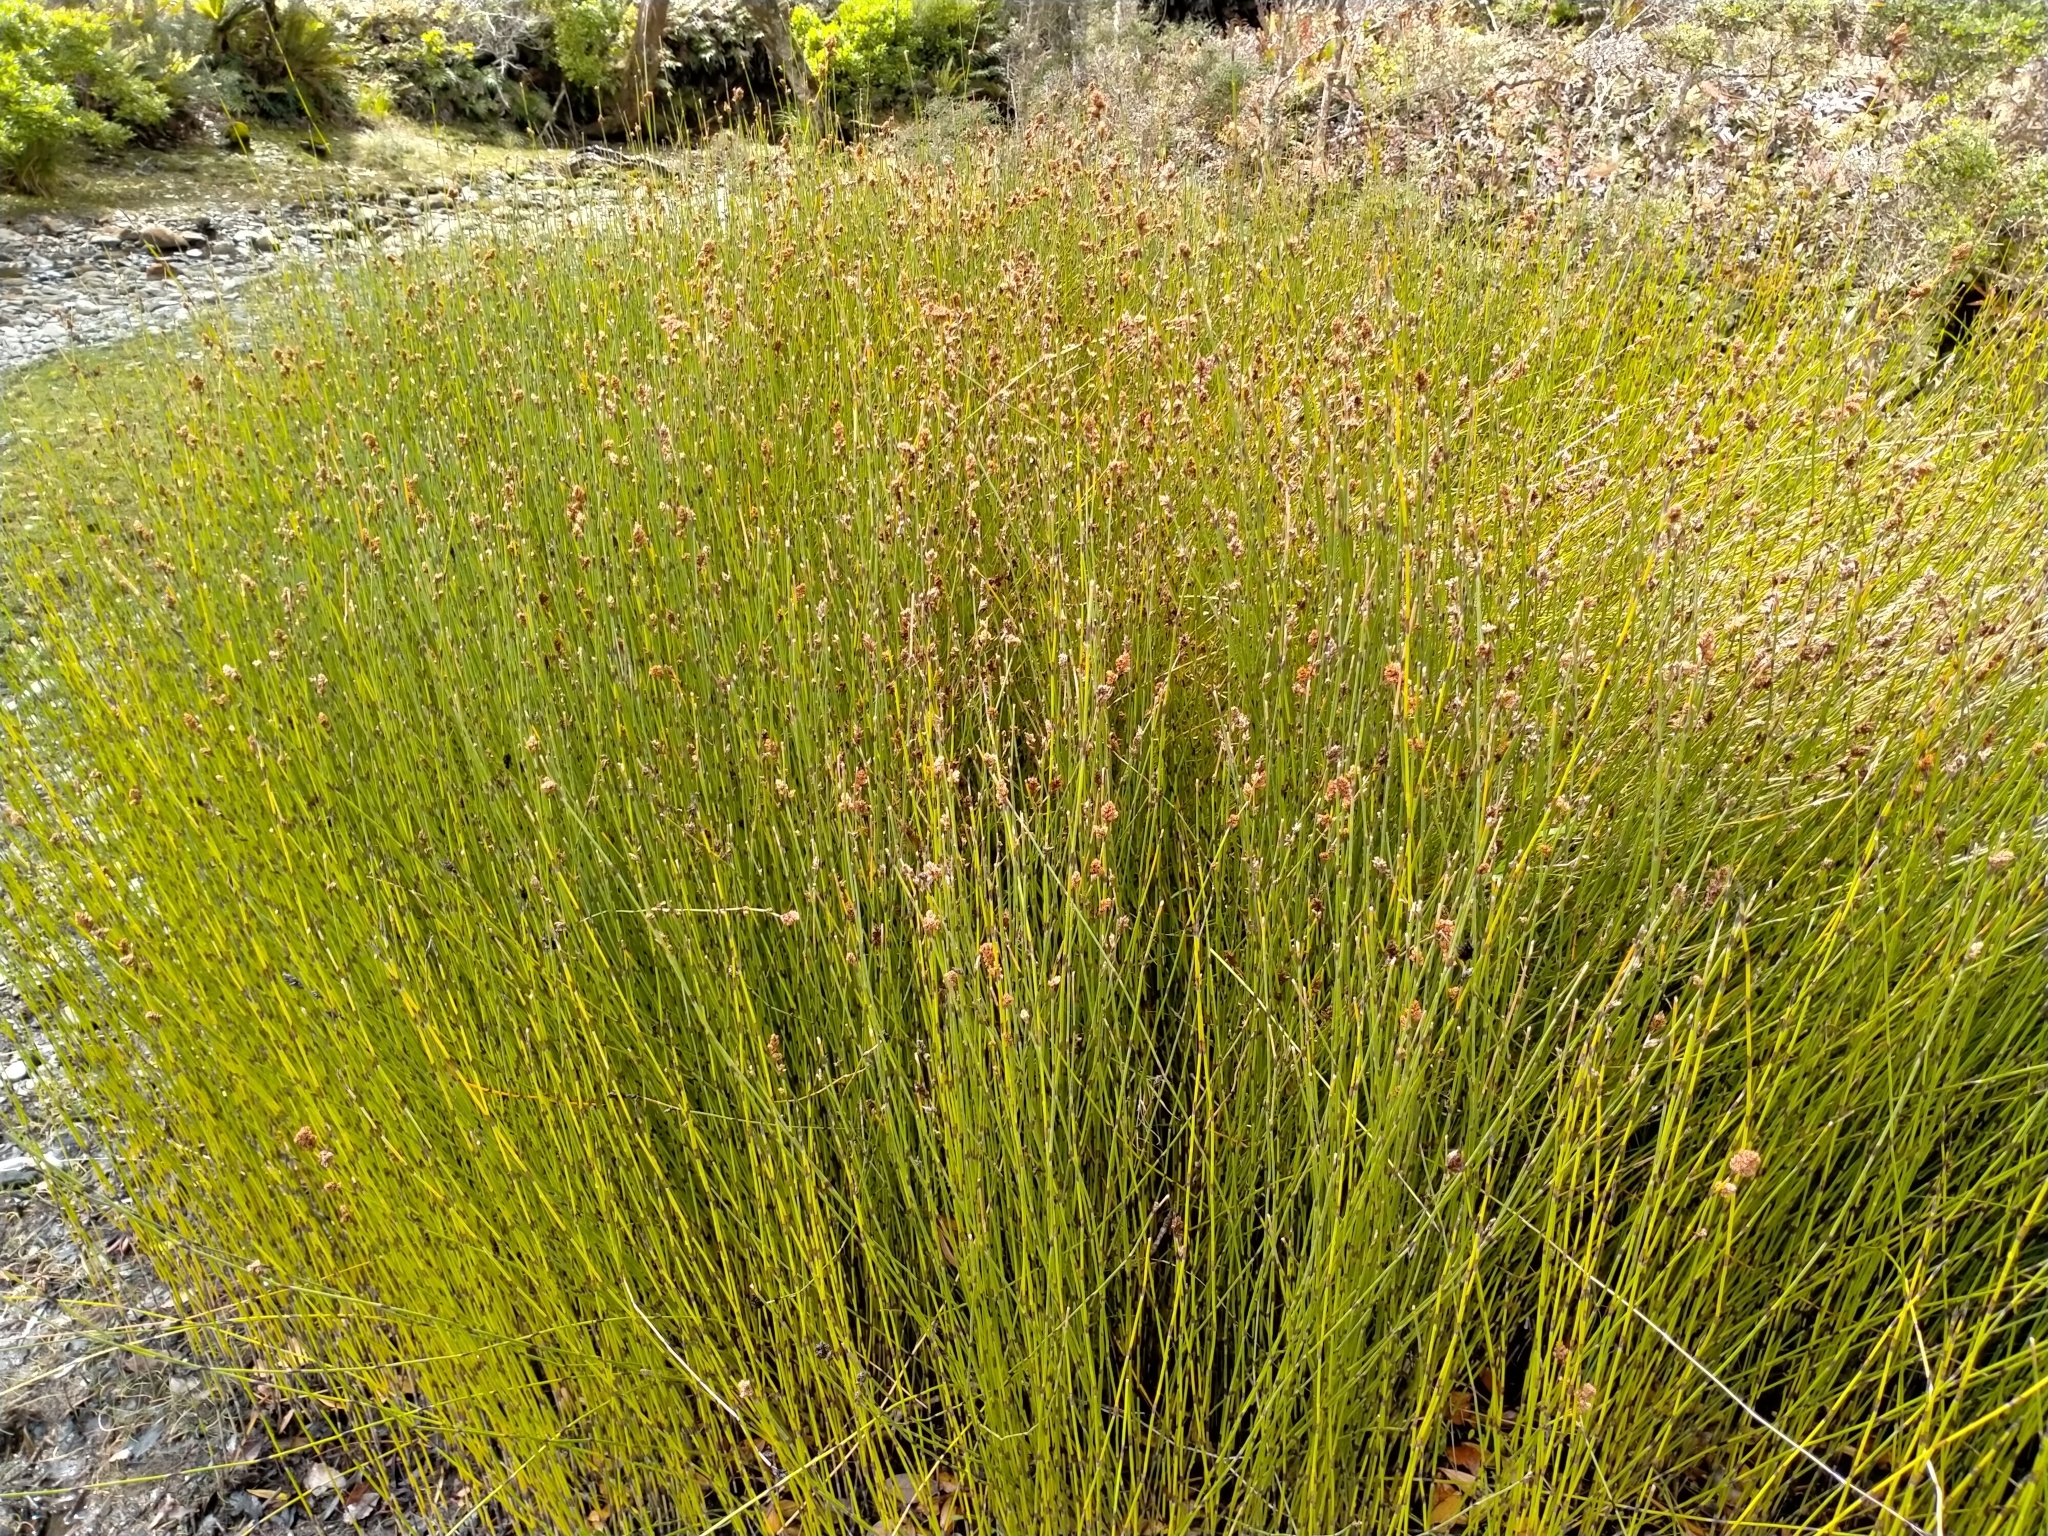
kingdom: Plantae
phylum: Tracheophyta
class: Liliopsida
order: Poales
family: Restionaceae
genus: Apodasmia
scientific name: Apodasmia similis
